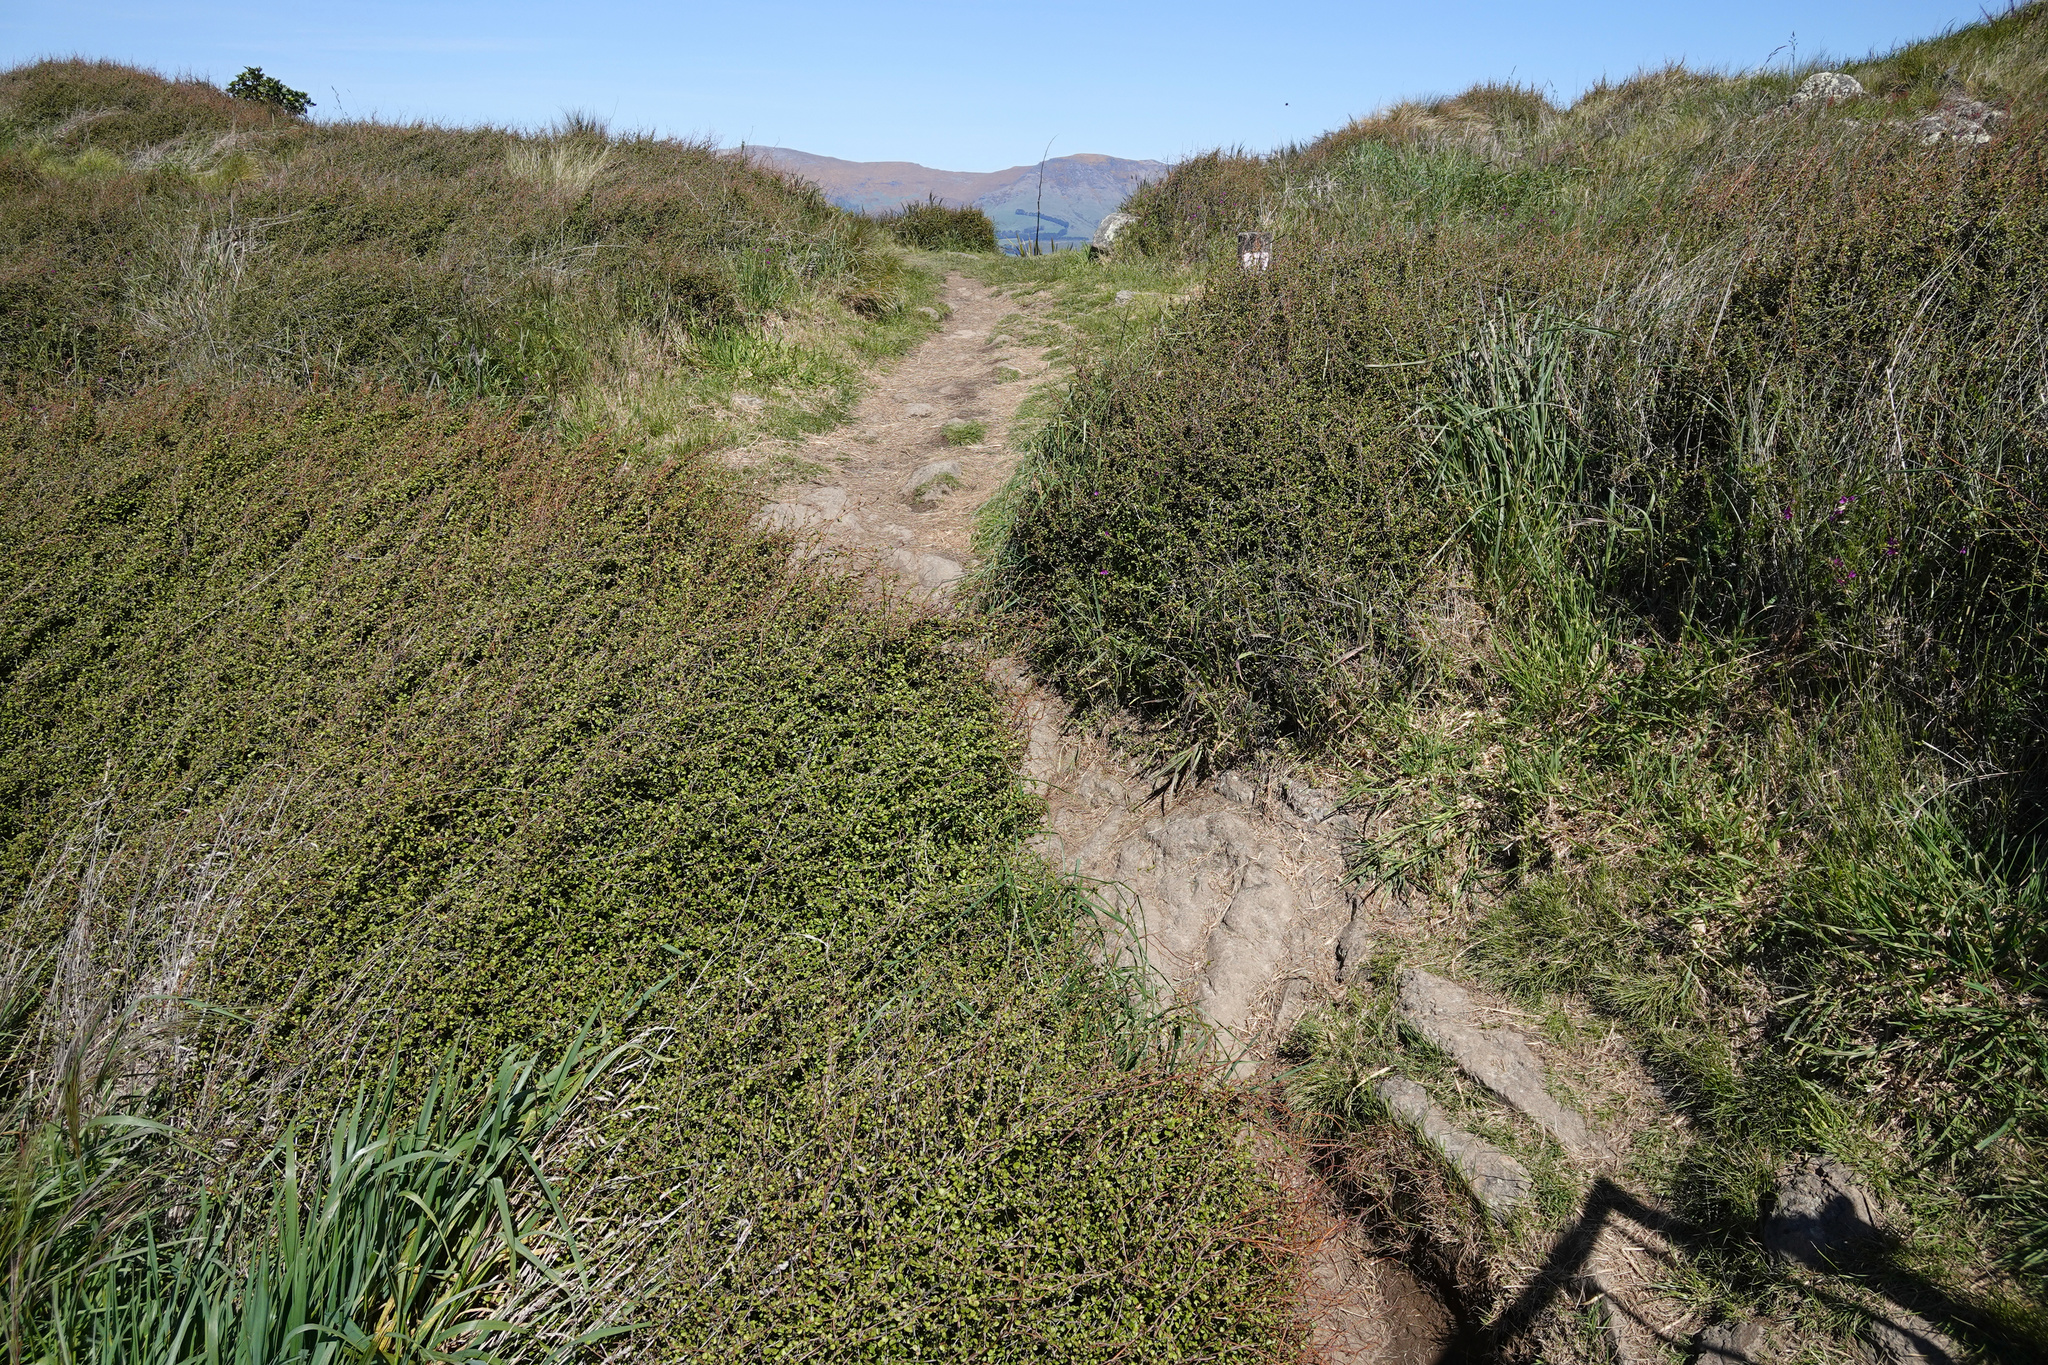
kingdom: Plantae
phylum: Tracheophyta
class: Magnoliopsida
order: Caryophyllales
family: Polygonaceae
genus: Muehlenbeckia
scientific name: Muehlenbeckia complexa
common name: Wireplant
